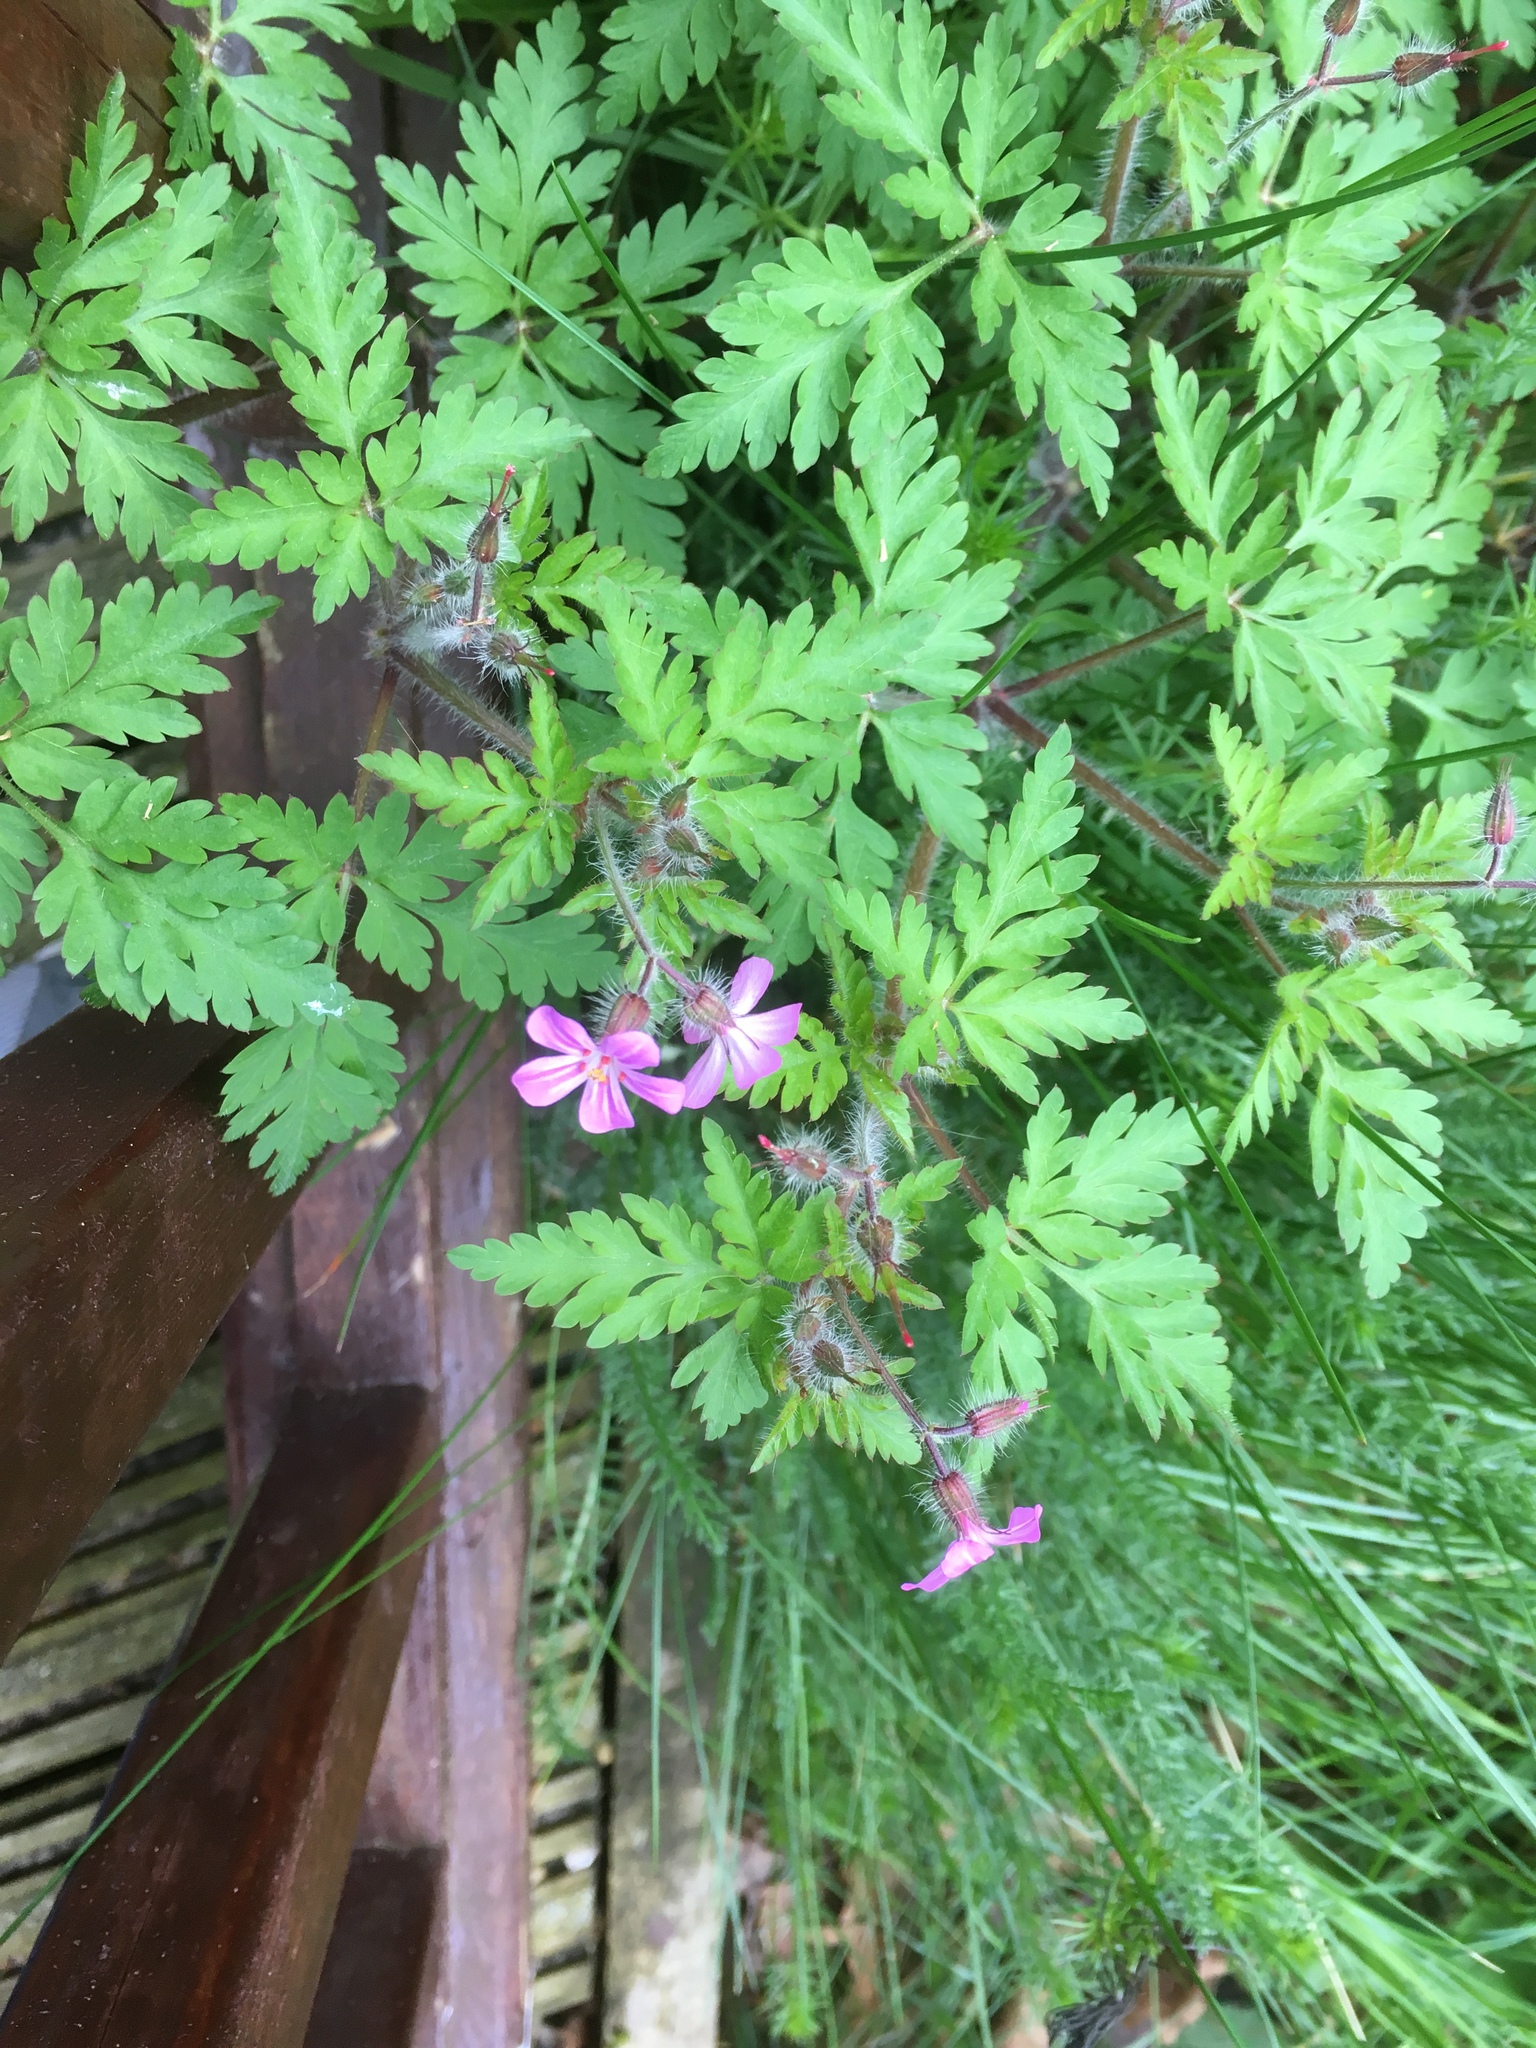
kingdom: Plantae
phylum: Tracheophyta
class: Magnoliopsida
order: Geraniales
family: Geraniaceae
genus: Geranium
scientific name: Geranium robertianum
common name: Herb-robert
